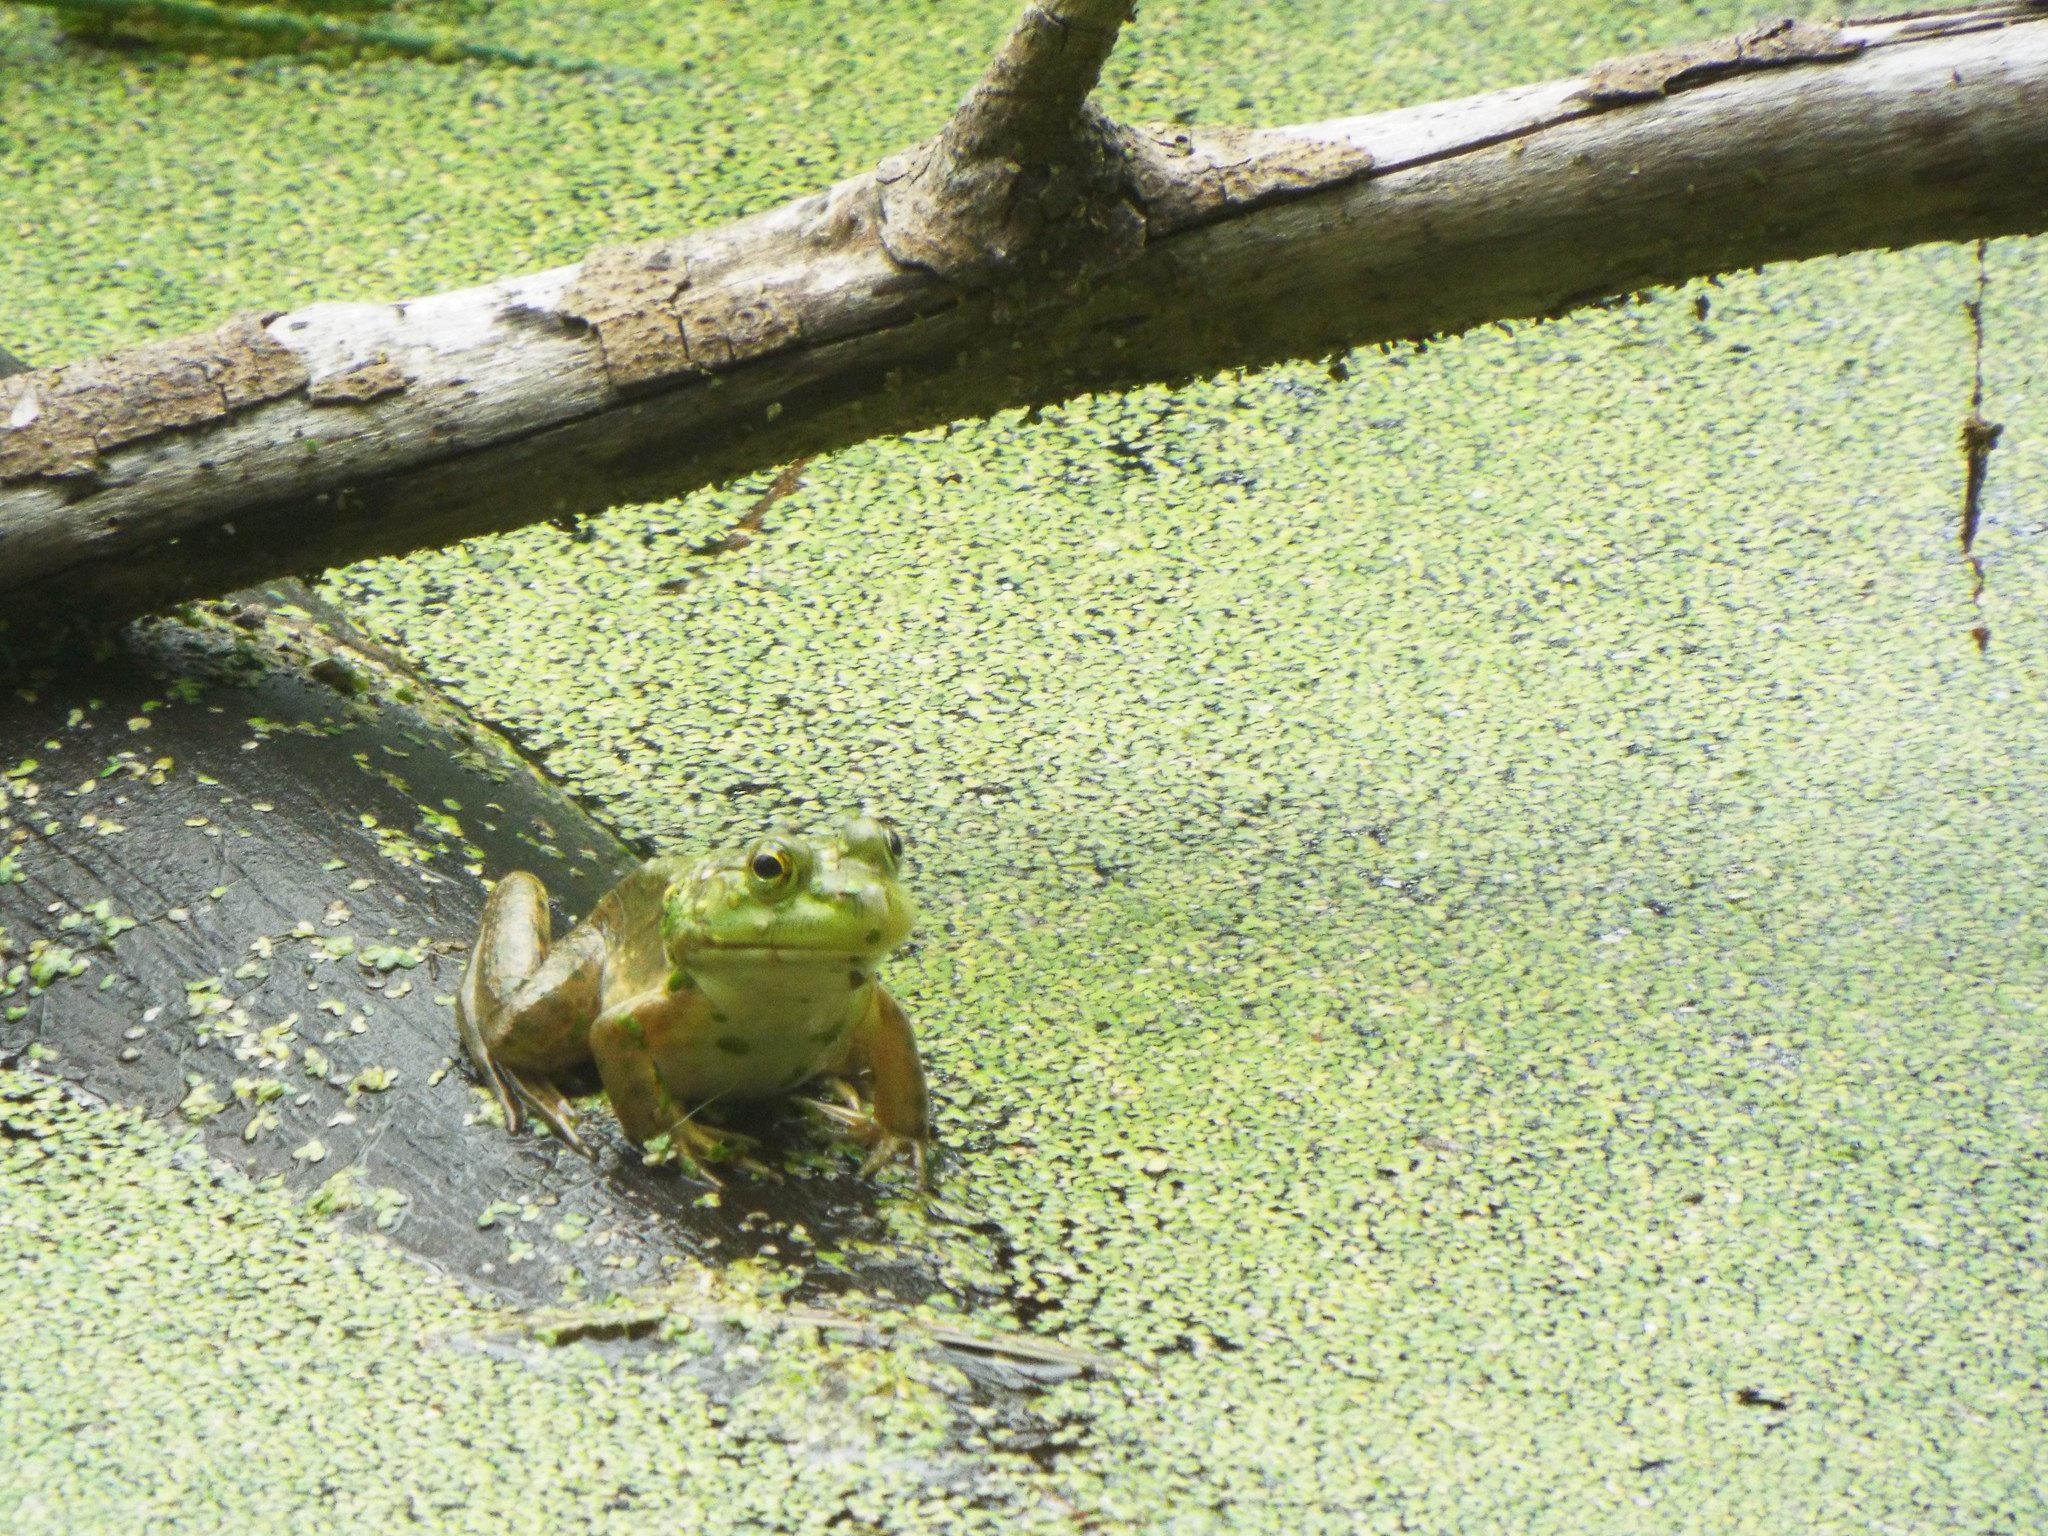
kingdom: Animalia
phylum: Chordata
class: Amphibia
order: Anura
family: Ranidae
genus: Lithobates
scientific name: Lithobates catesbeianus
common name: American bullfrog
